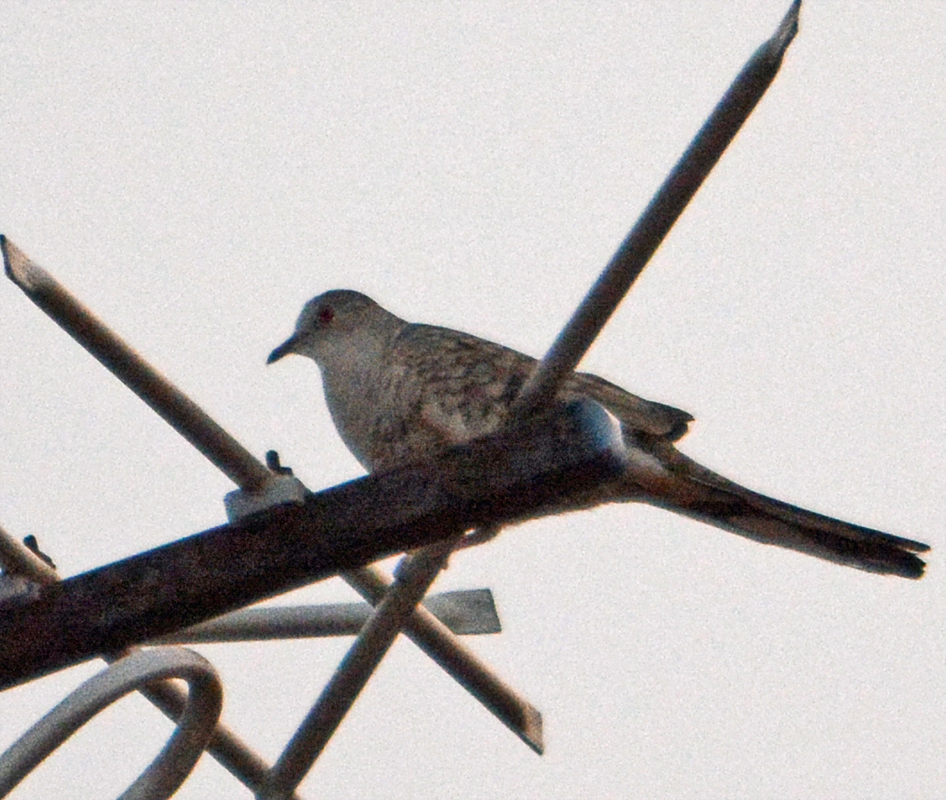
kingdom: Animalia
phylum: Chordata
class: Aves
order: Columbiformes
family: Columbidae
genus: Columbina
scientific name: Columbina inca
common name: Inca dove
